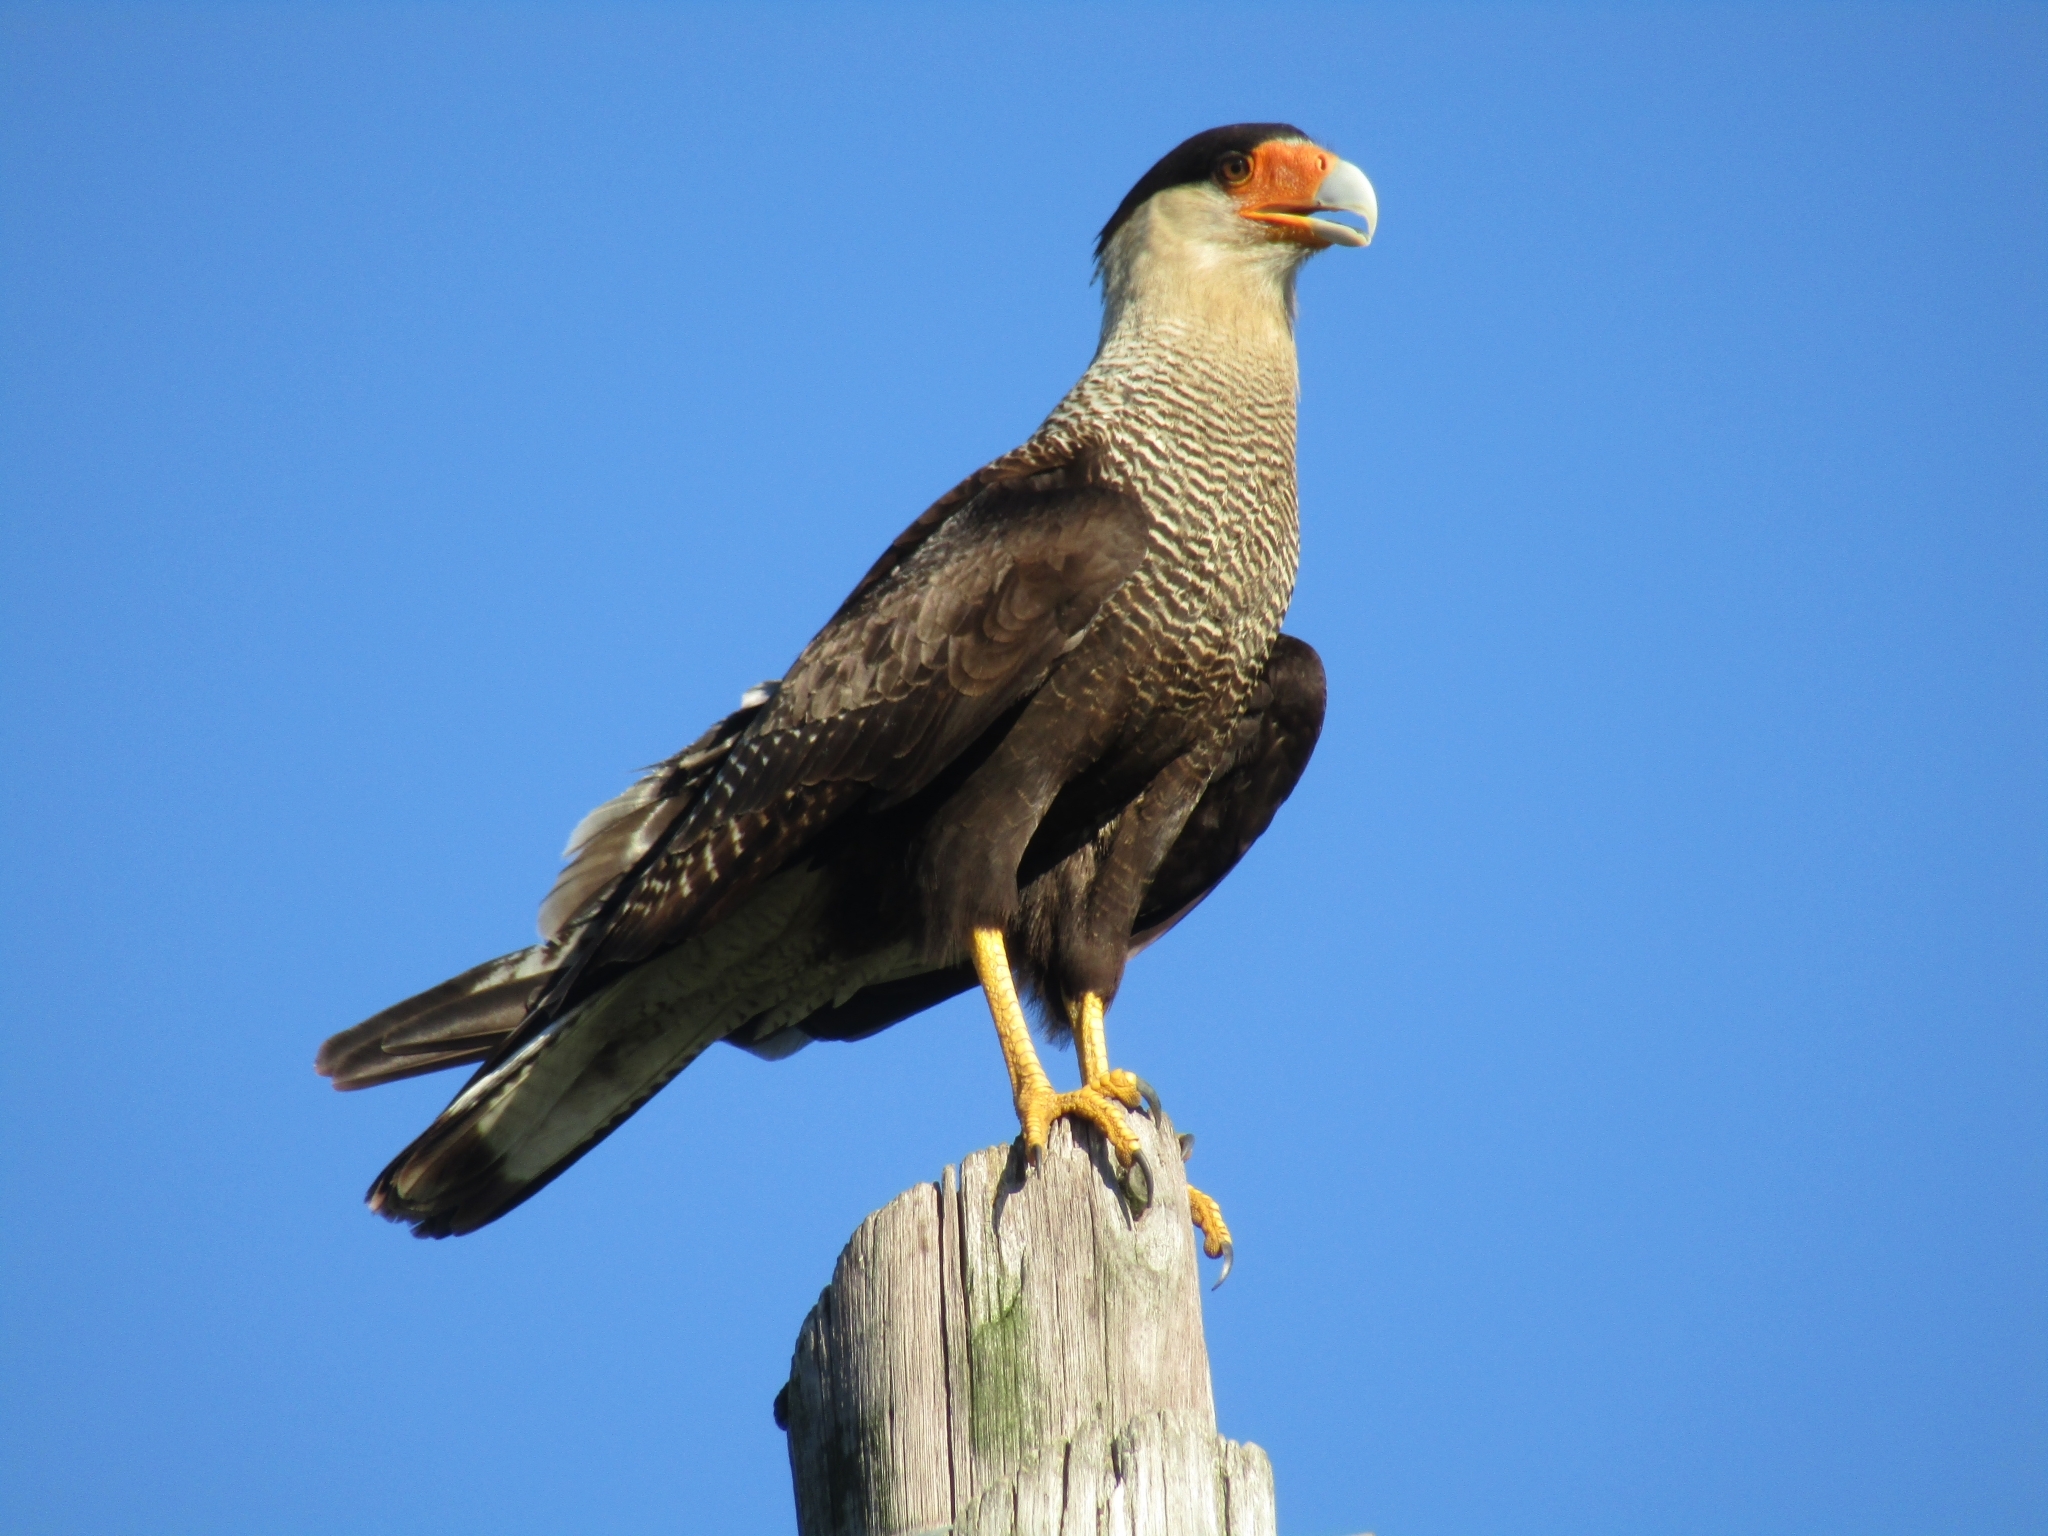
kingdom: Animalia
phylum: Chordata
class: Aves
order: Falconiformes
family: Falconidae
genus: Caracara
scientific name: Caracara plancus
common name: Southern caracara
